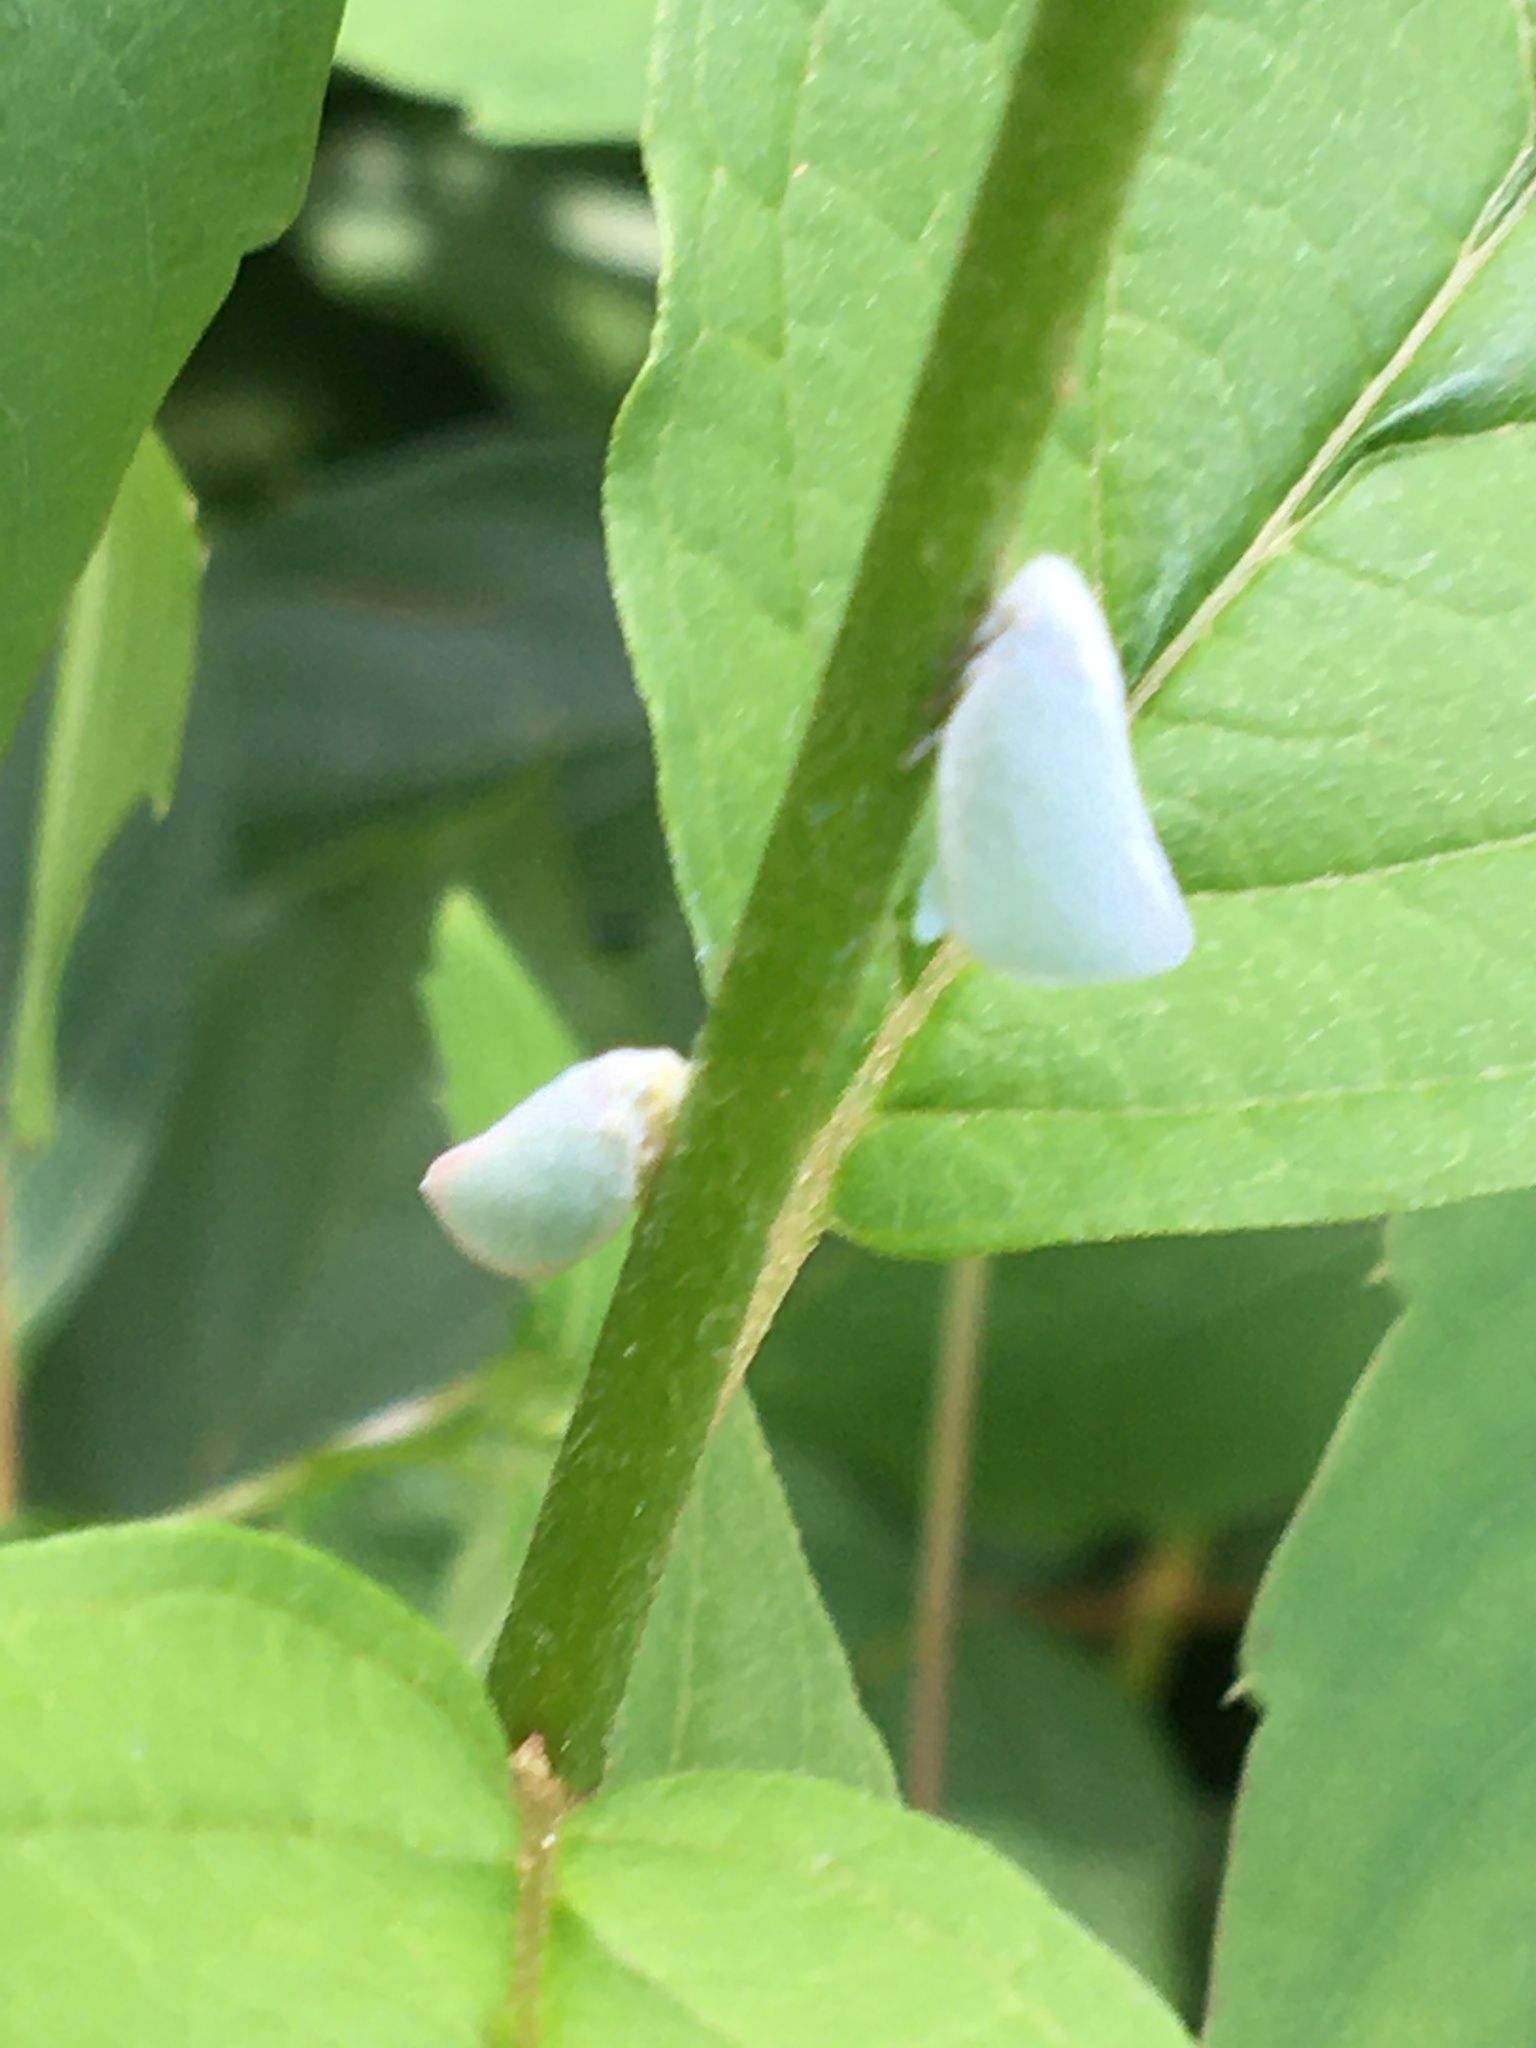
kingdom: Animalia
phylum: Arthropoda
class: Insecta
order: Hemiptera
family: Flatidae
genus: Flatormenis
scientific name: Flatormenis proxima
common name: Northern flatid planthopper
